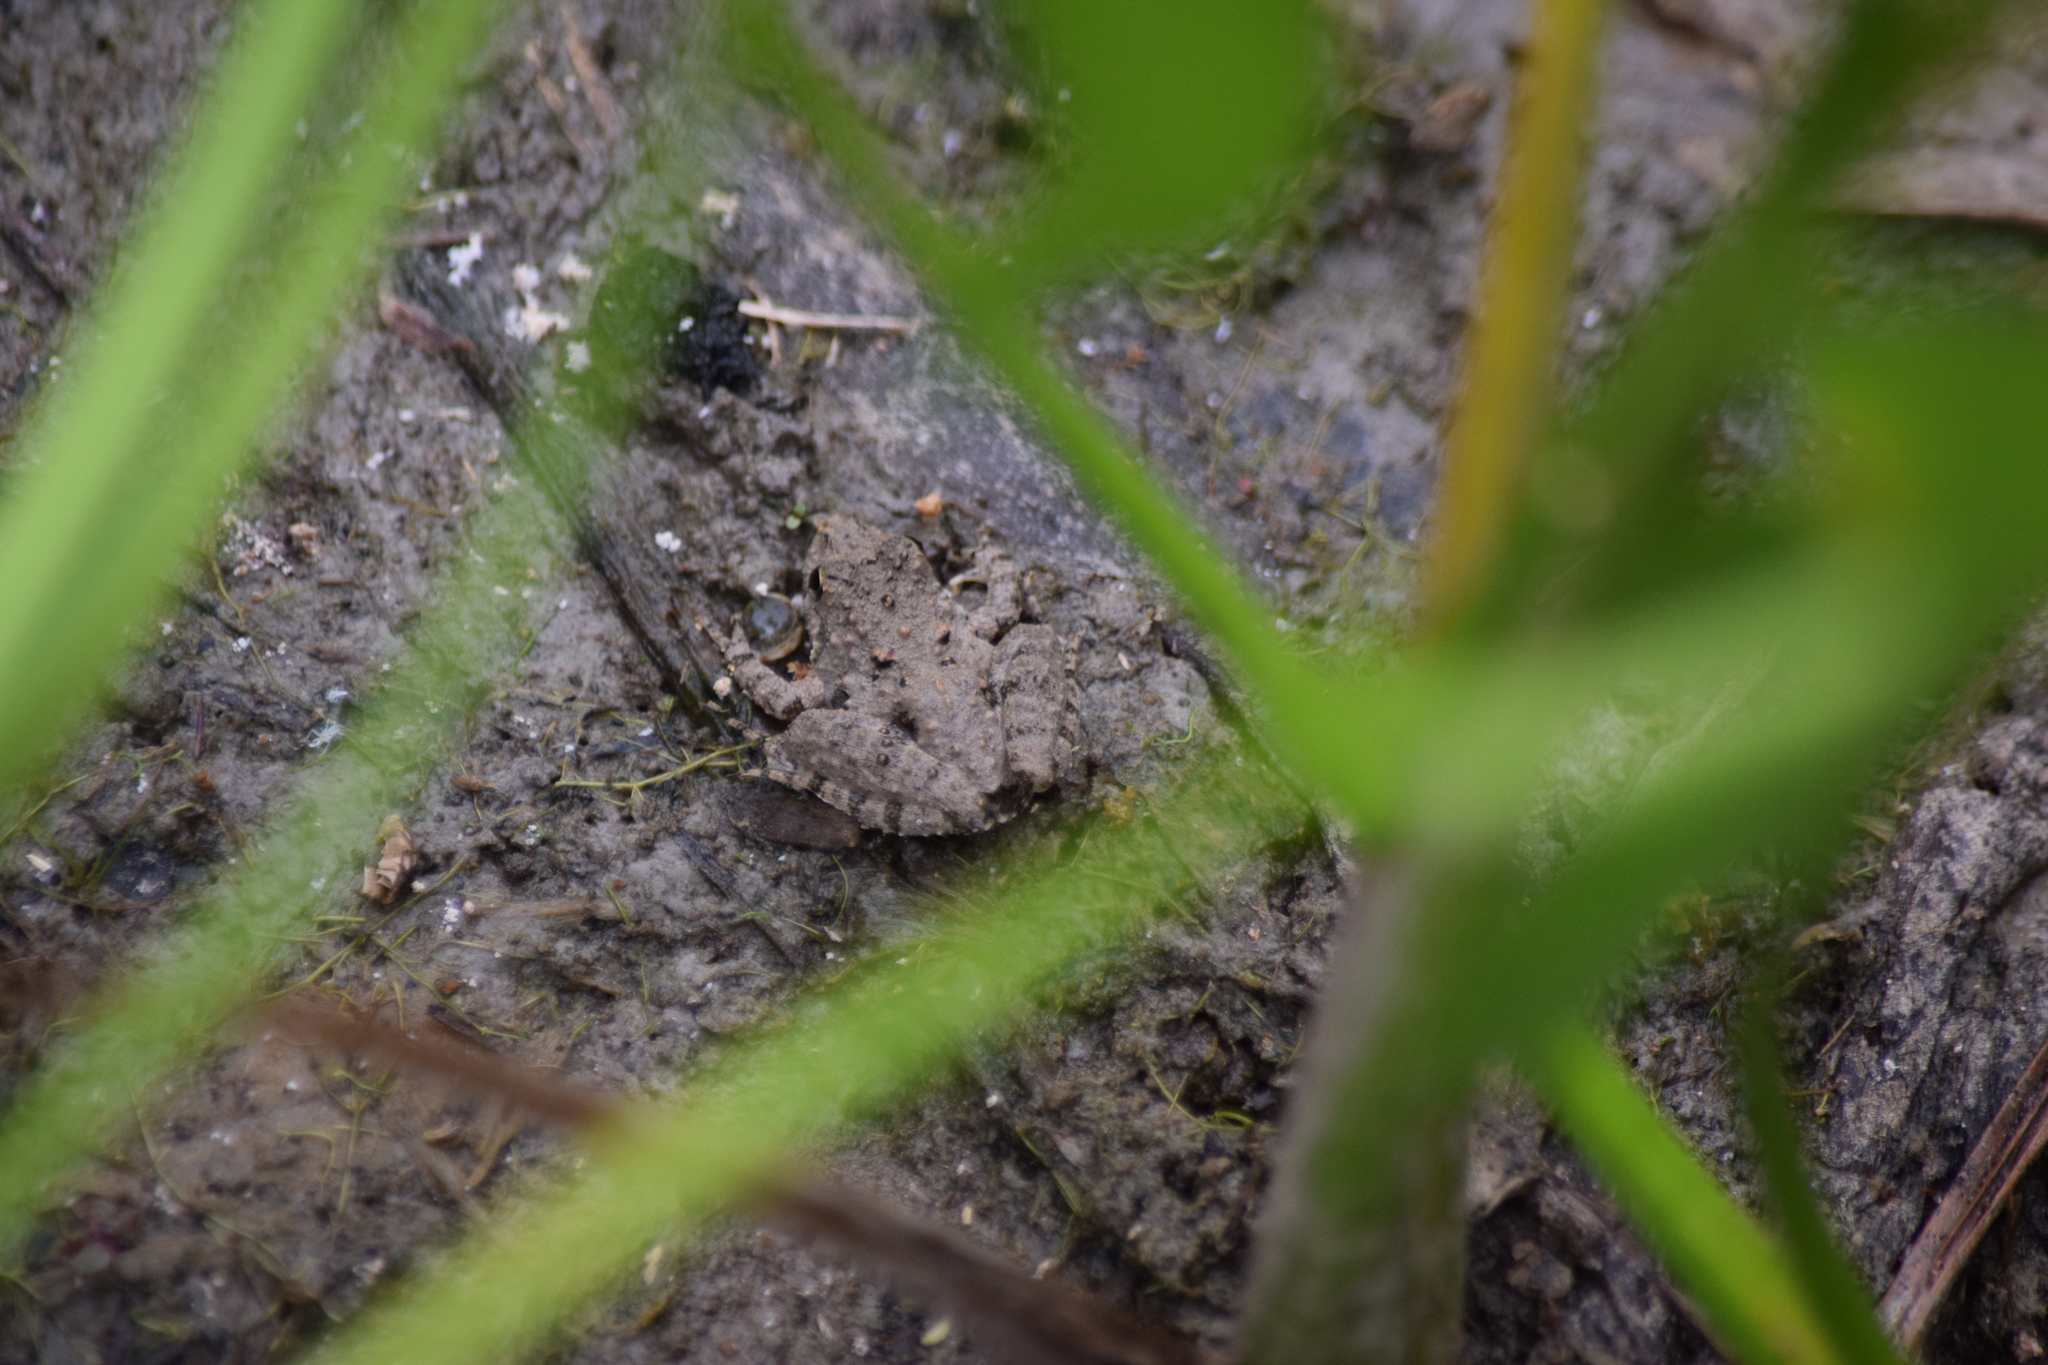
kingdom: Animalia
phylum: Chordata
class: Amphibia
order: Anura
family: Hylidae
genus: Acris
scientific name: Acris crepitans
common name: Northern cricket frog
